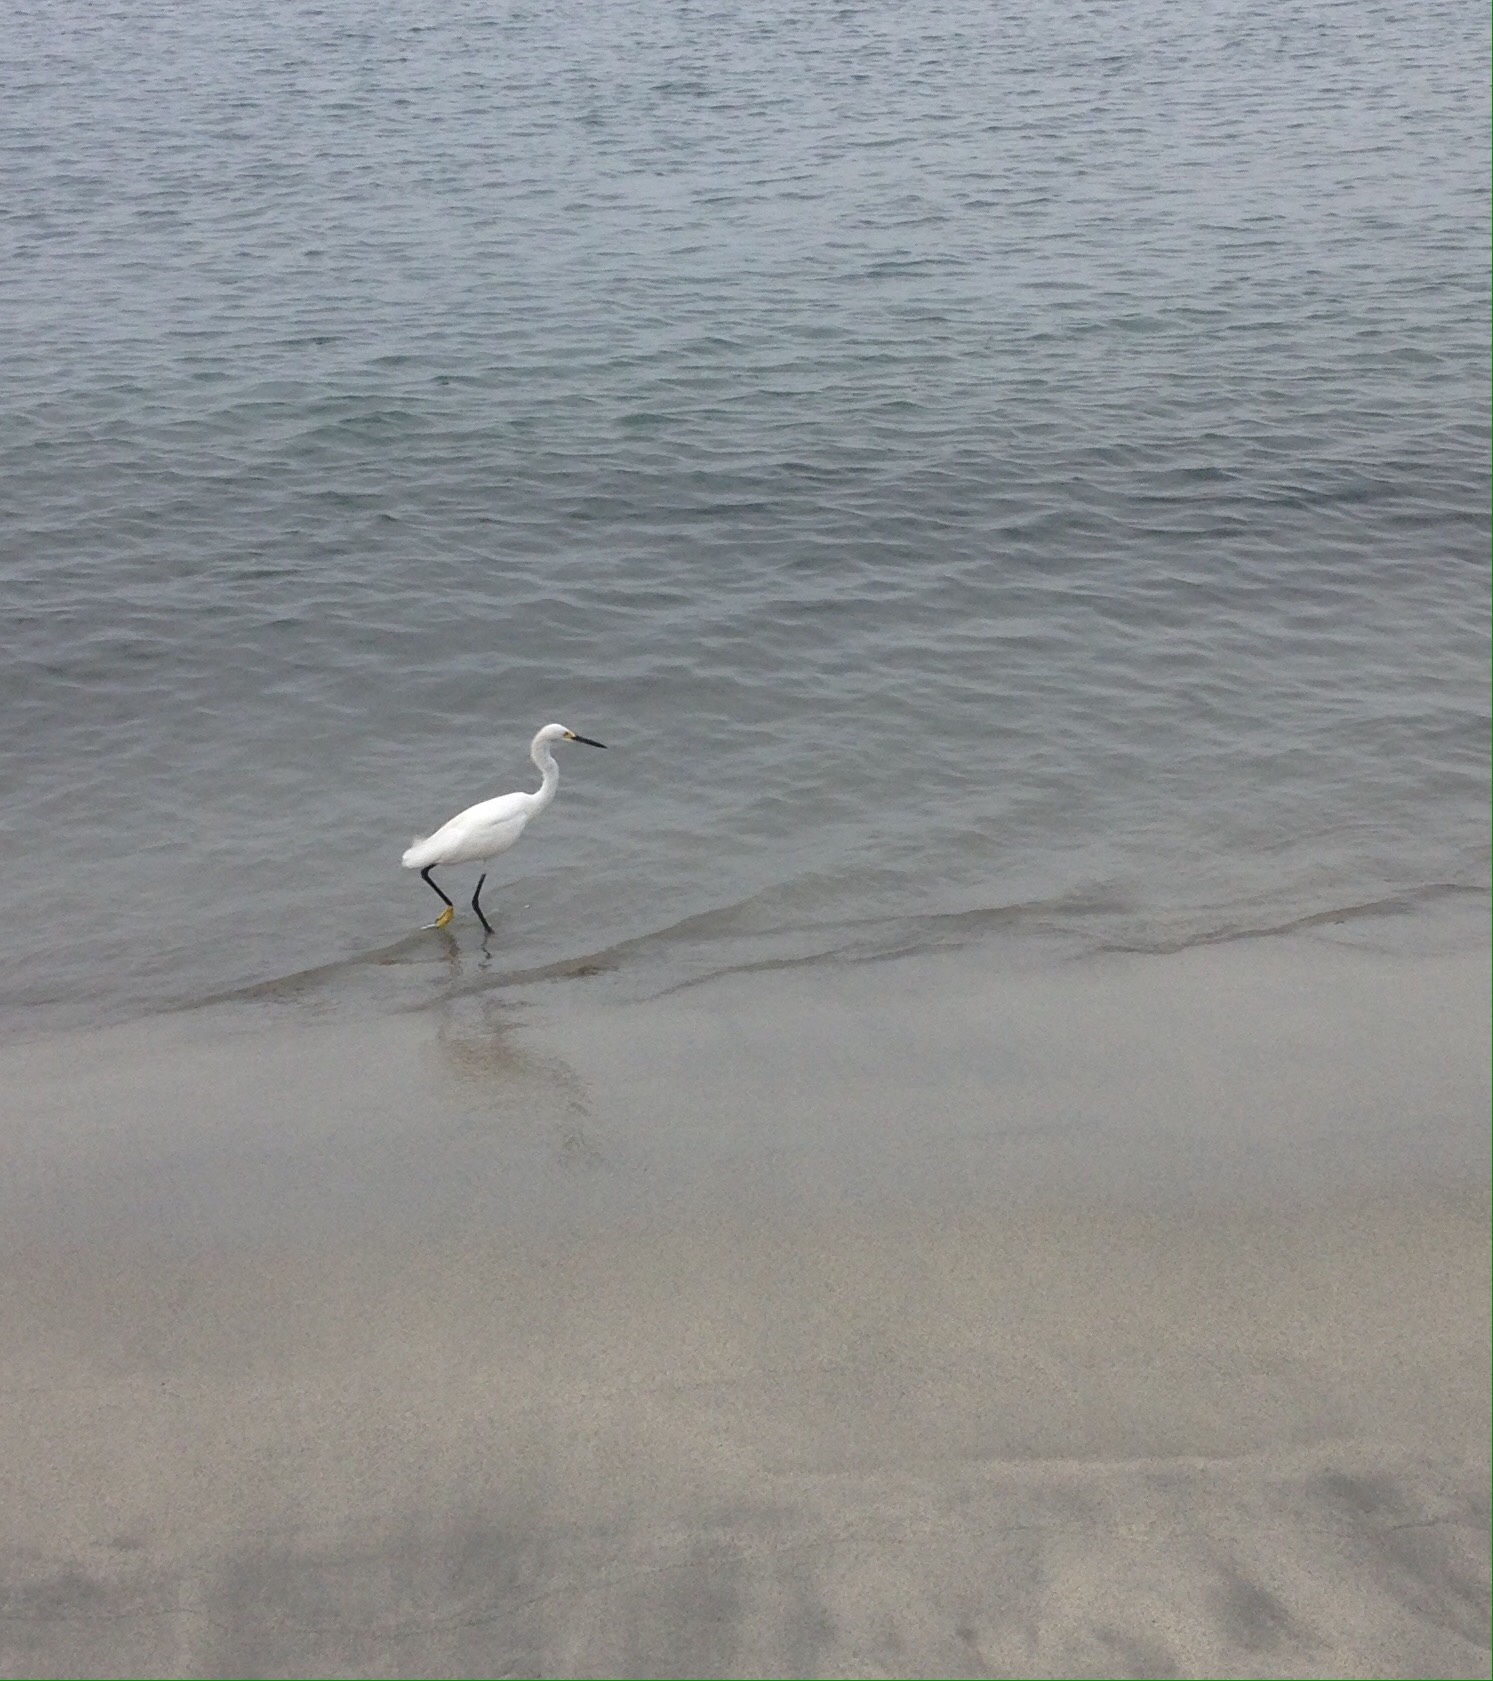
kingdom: Animalia
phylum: Chordata
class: Aves
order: Pelecaniformes
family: Ardeidae
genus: Egretta
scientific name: Egretta thula
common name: Snowy egret
